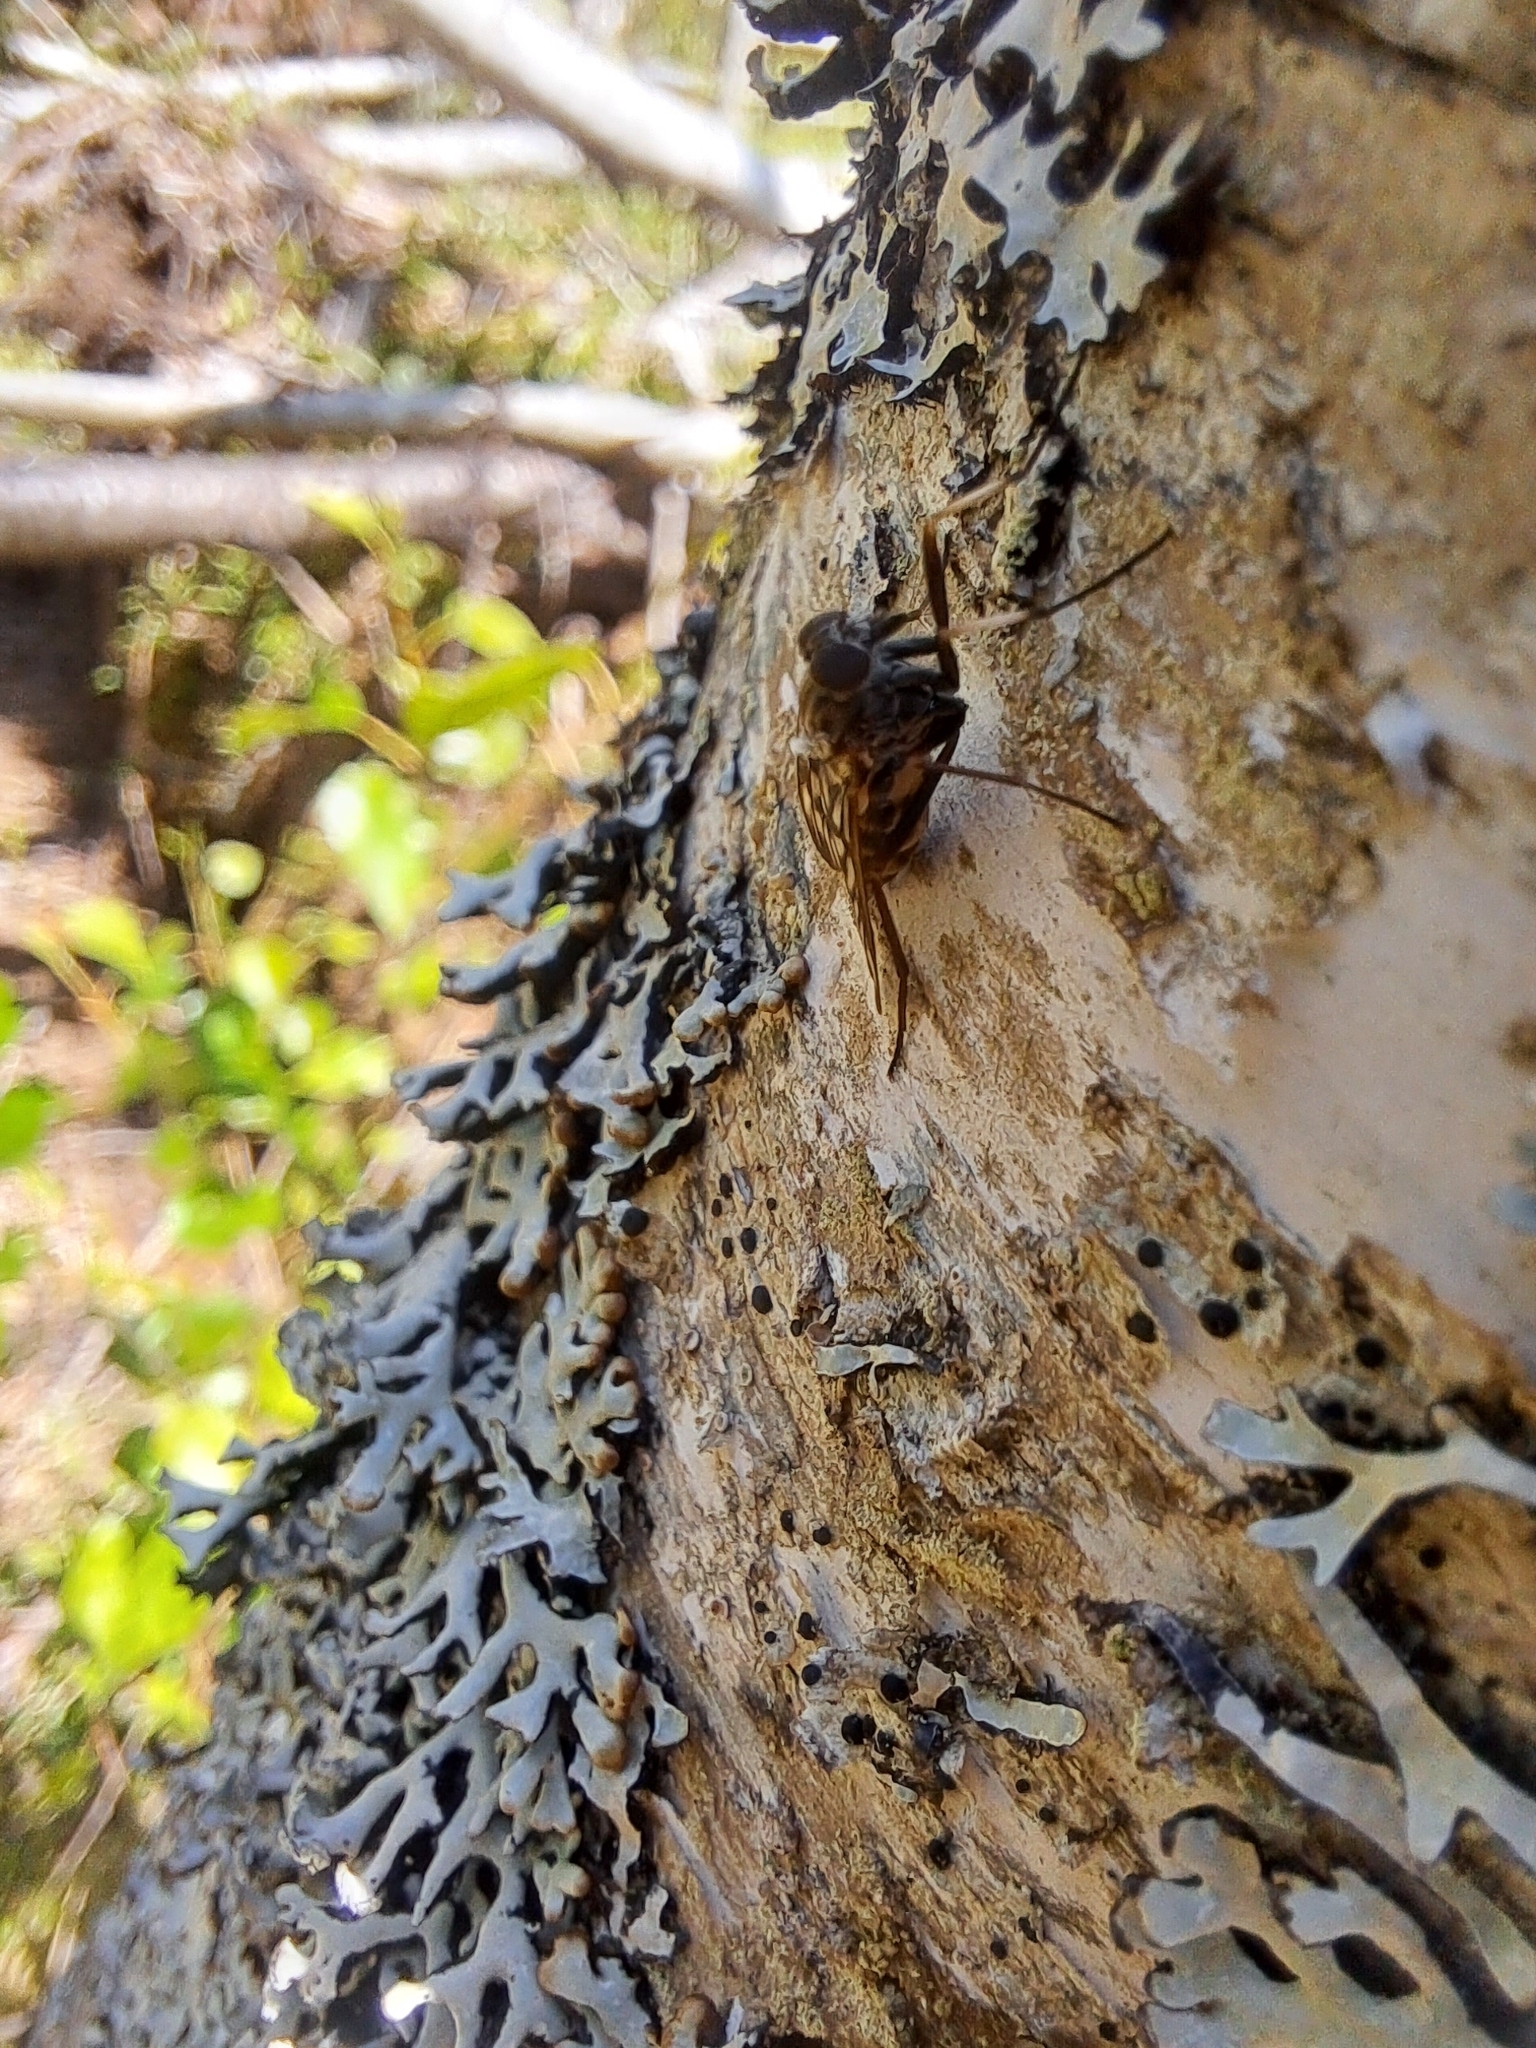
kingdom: Animalia
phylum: Arthropoda
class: Insecta
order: Diptera
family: Rhagionidae
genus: Rhagio
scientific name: Rhagio mystaceus
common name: Common snipe fly
